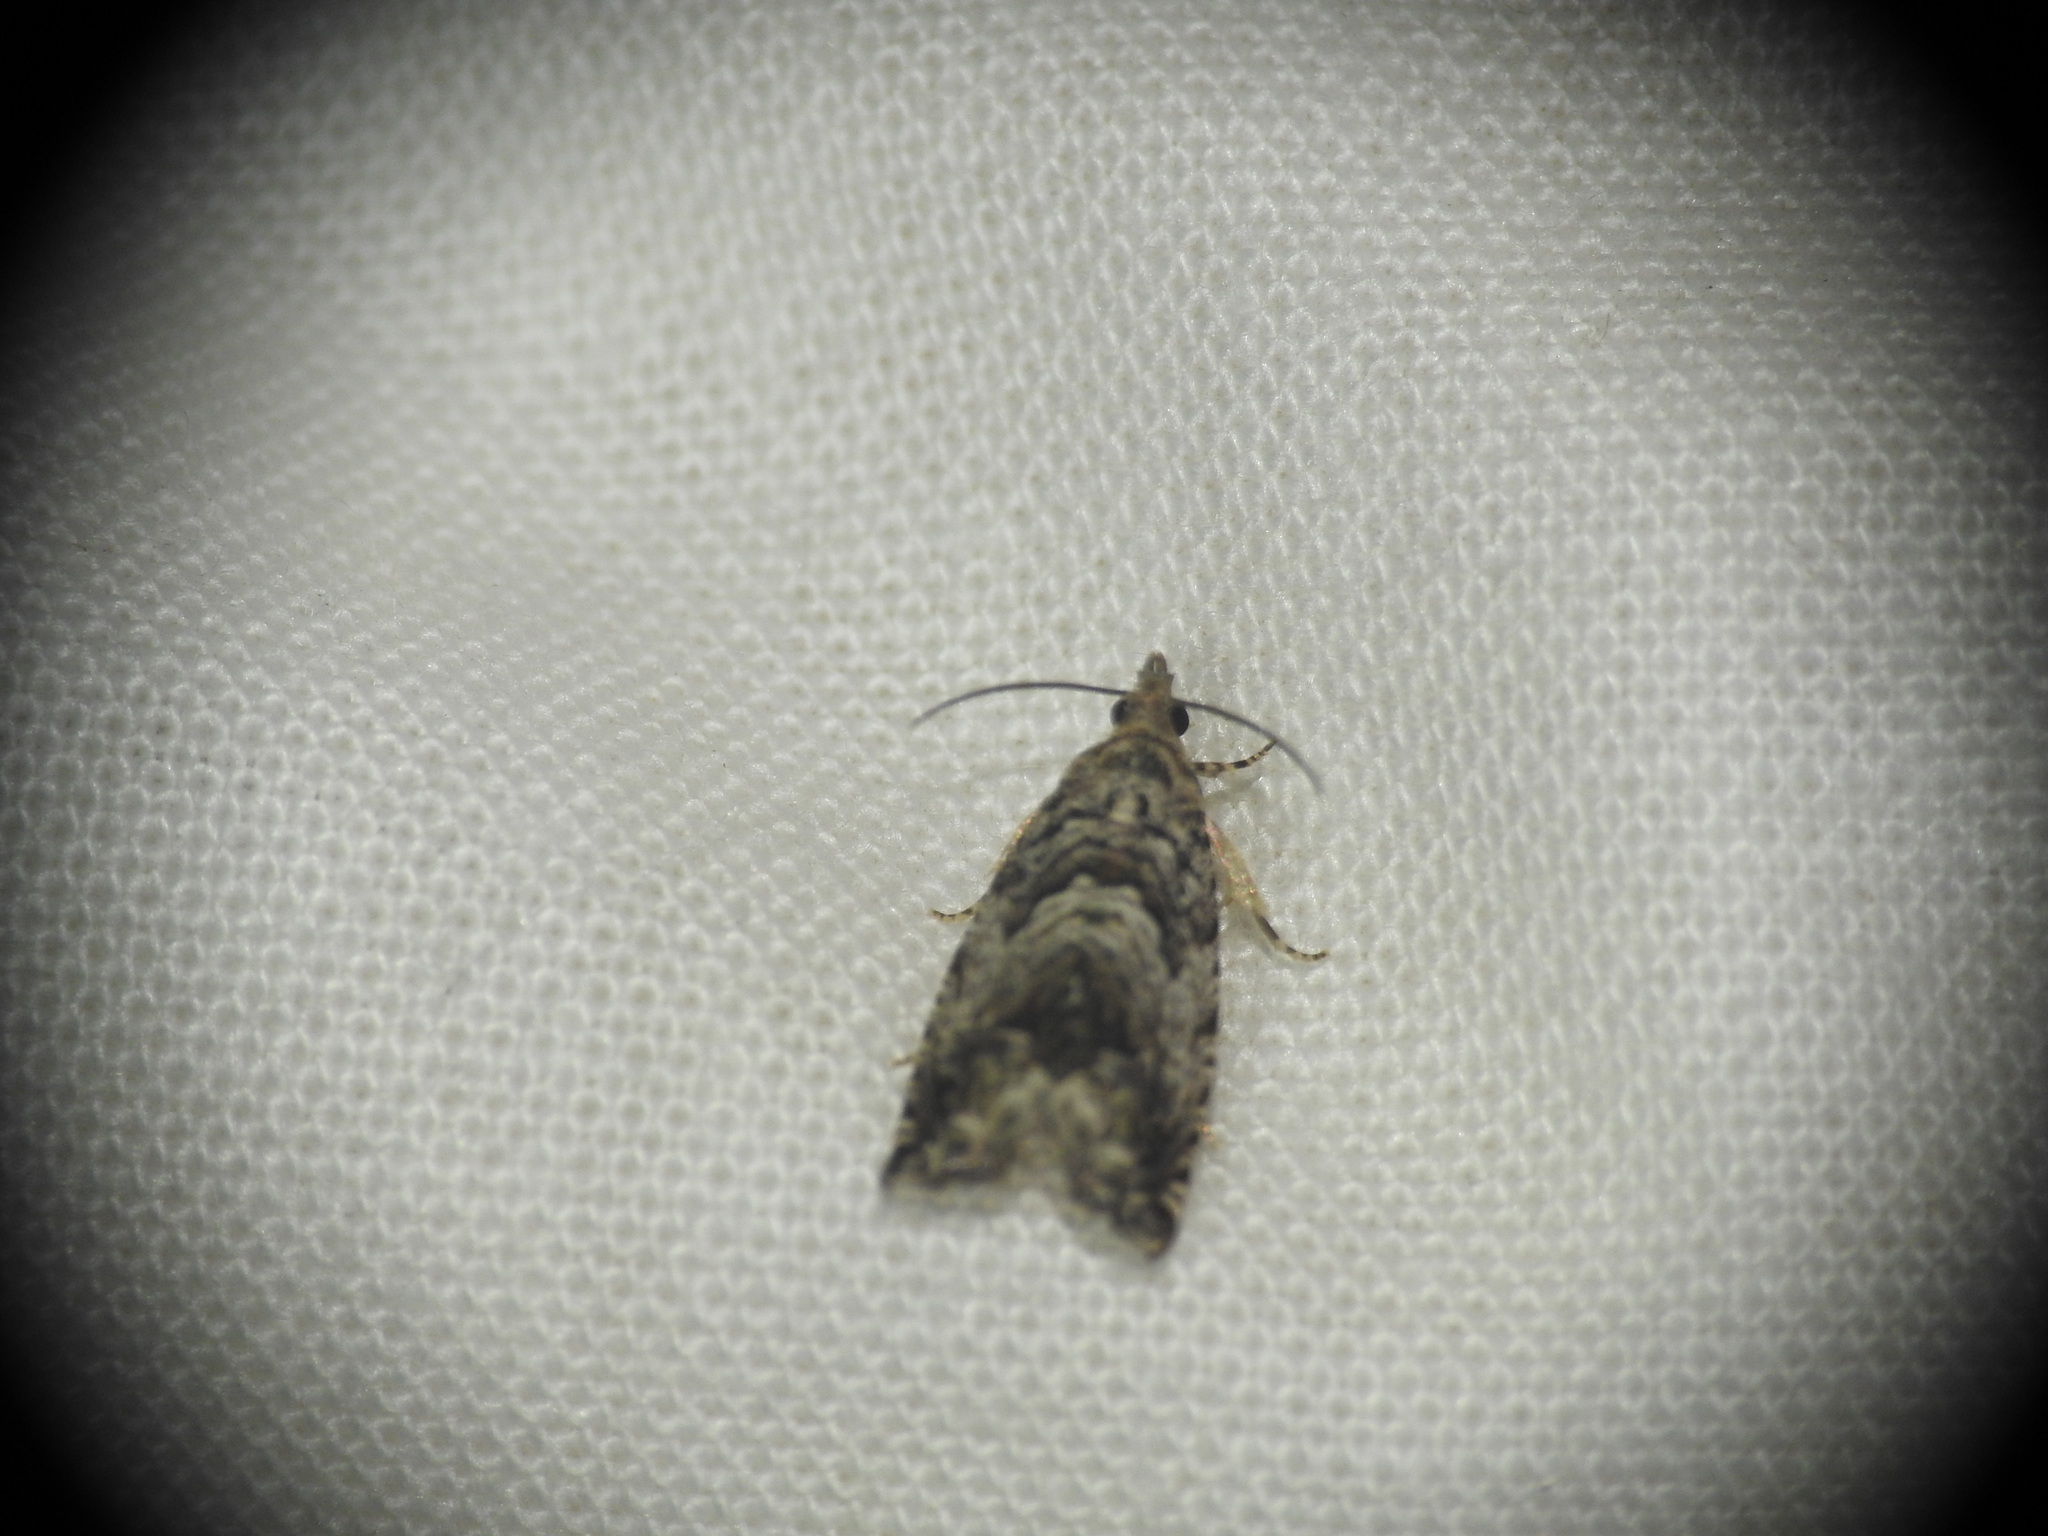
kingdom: Animalia
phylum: Arthropoda
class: Insecta
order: Lepidoptera
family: Tortricidae
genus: Cydia
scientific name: Cydia fagiglandana
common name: Large beech piercer
